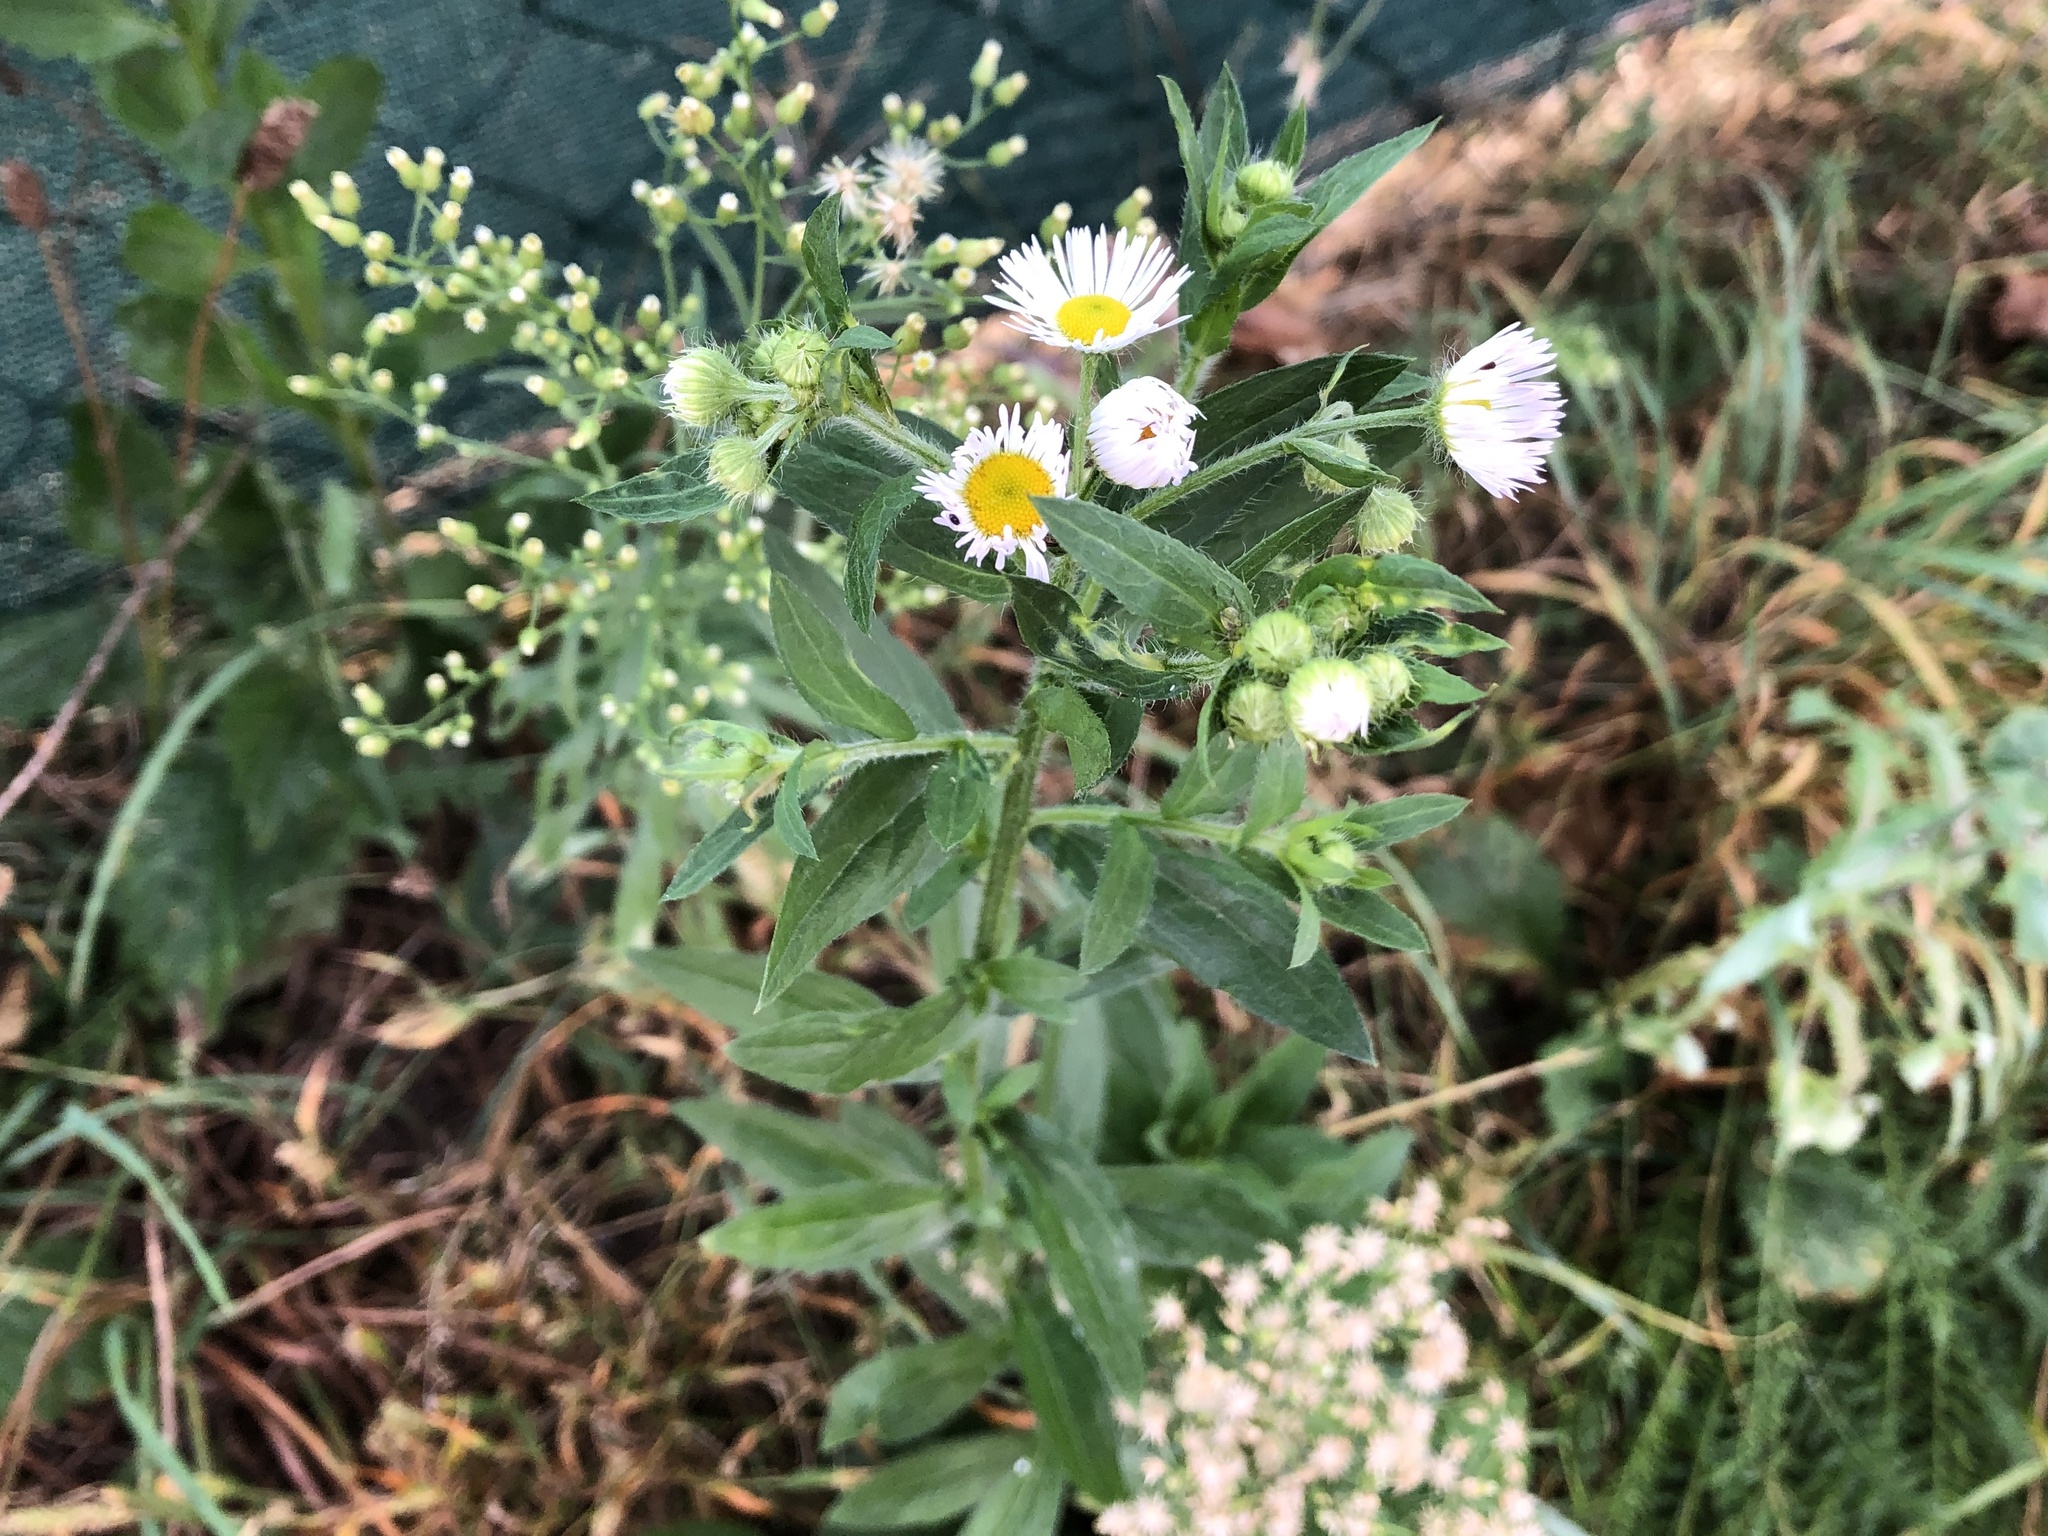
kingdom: Plantae
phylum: Tracheophyta
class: Magnoliopsida
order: Asterales
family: Asteraceae
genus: Erigeron
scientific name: Erigeron annuus
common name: Tall fleabane
